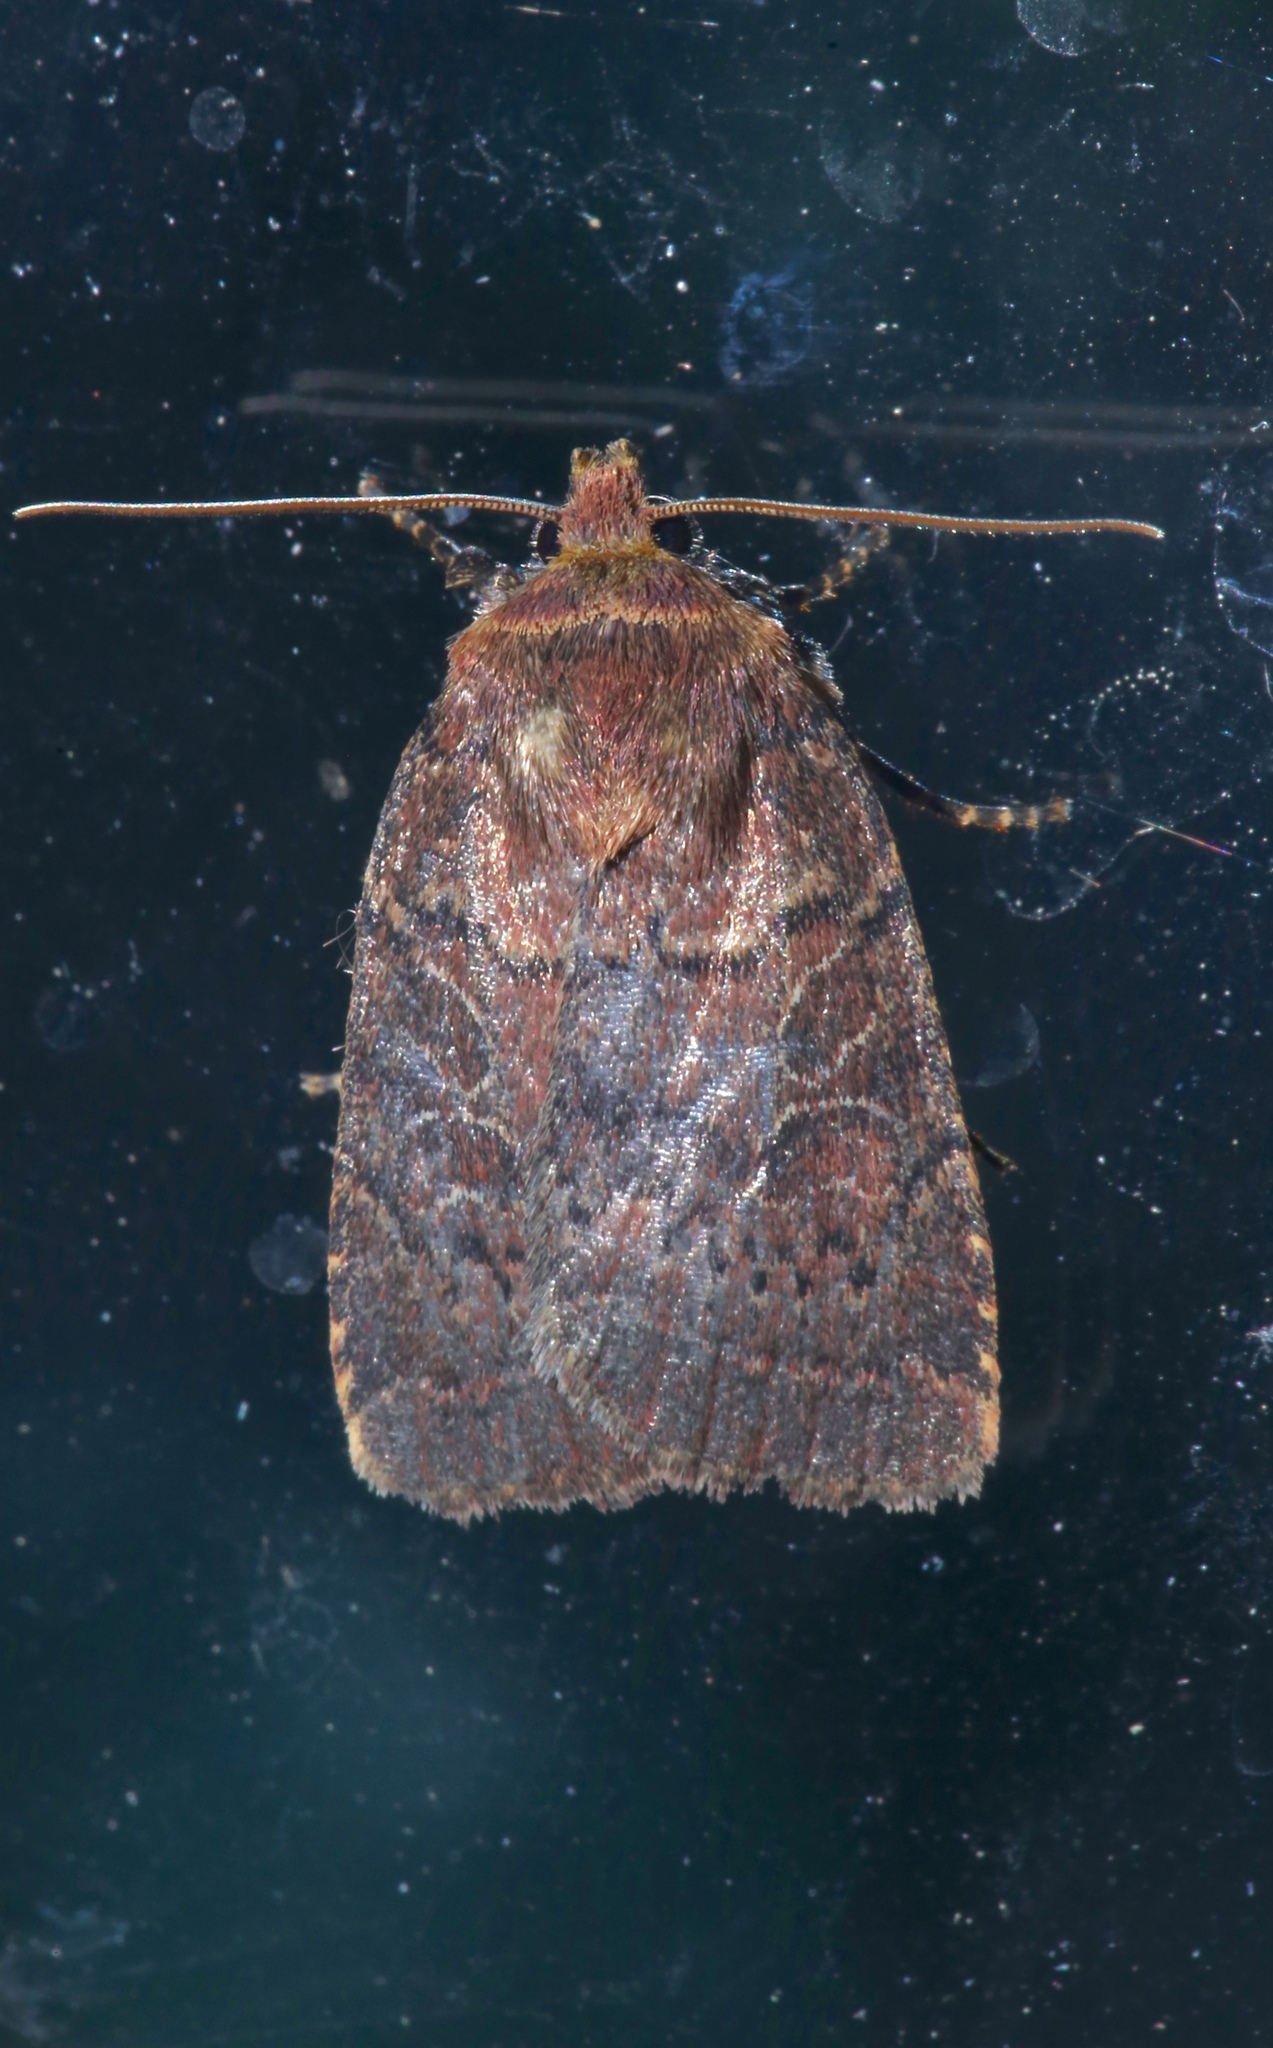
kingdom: Animalia
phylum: Arthropoda
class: Insecta
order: Lepidoptera
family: Noctuidae
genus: Orthodes
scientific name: Orthodes cynica
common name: Cynical quaker
